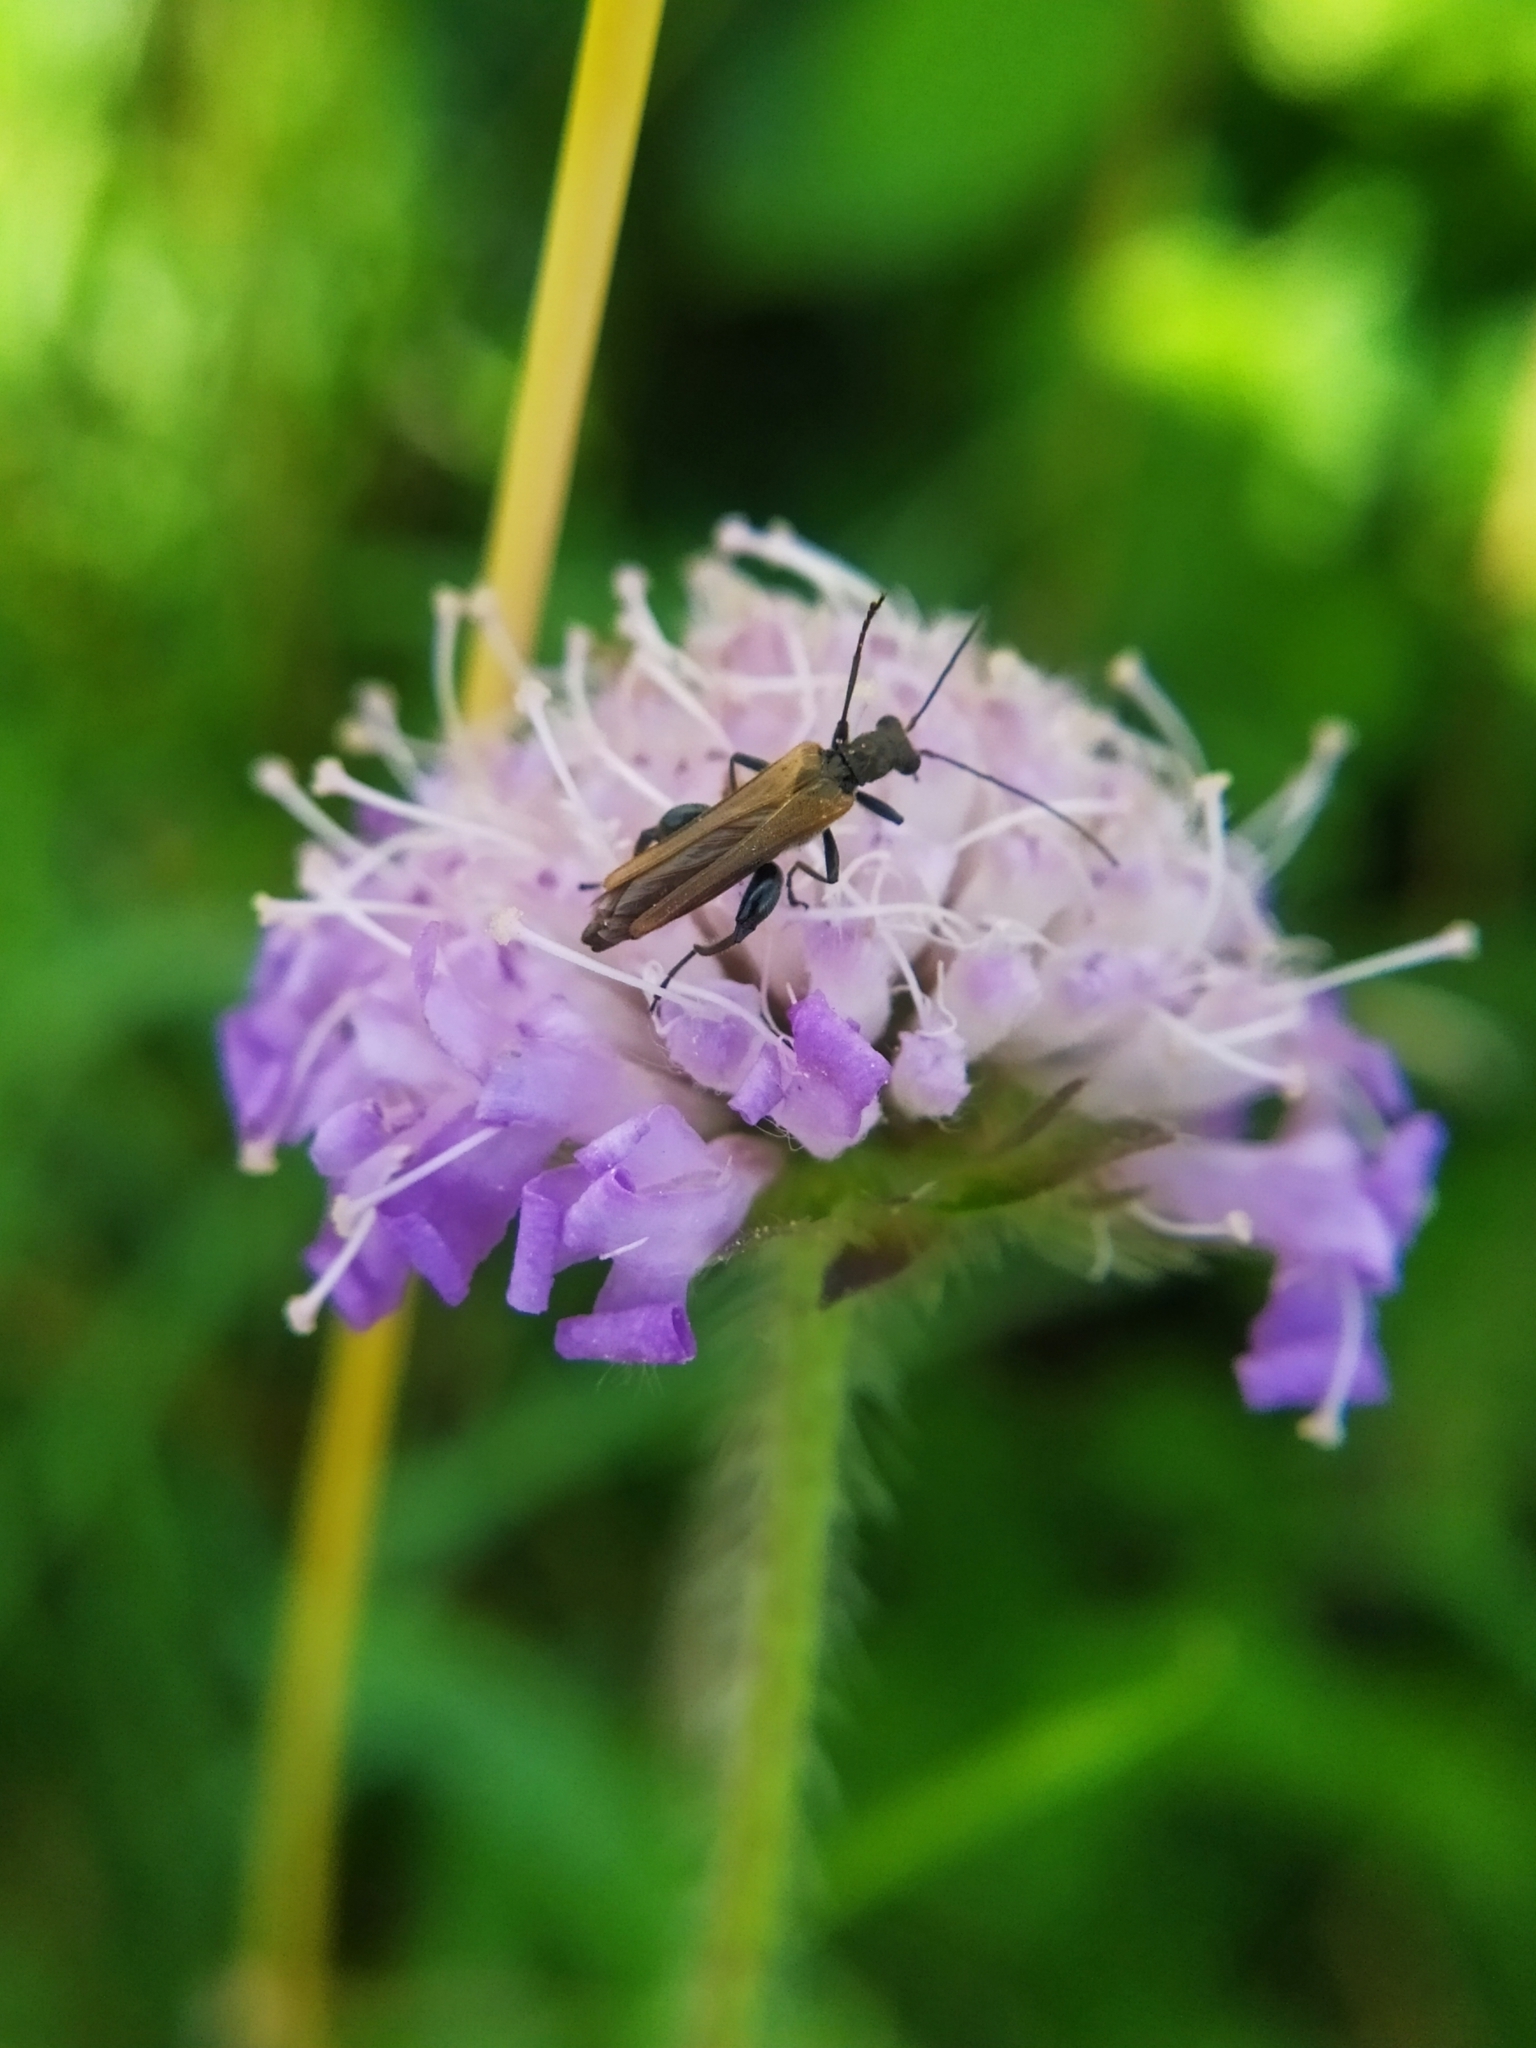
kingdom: Animalia
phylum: Arthropoda
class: Insecta
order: Coleoptera
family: Oedemeridae
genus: Oedemera
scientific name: Oedemera femorata
